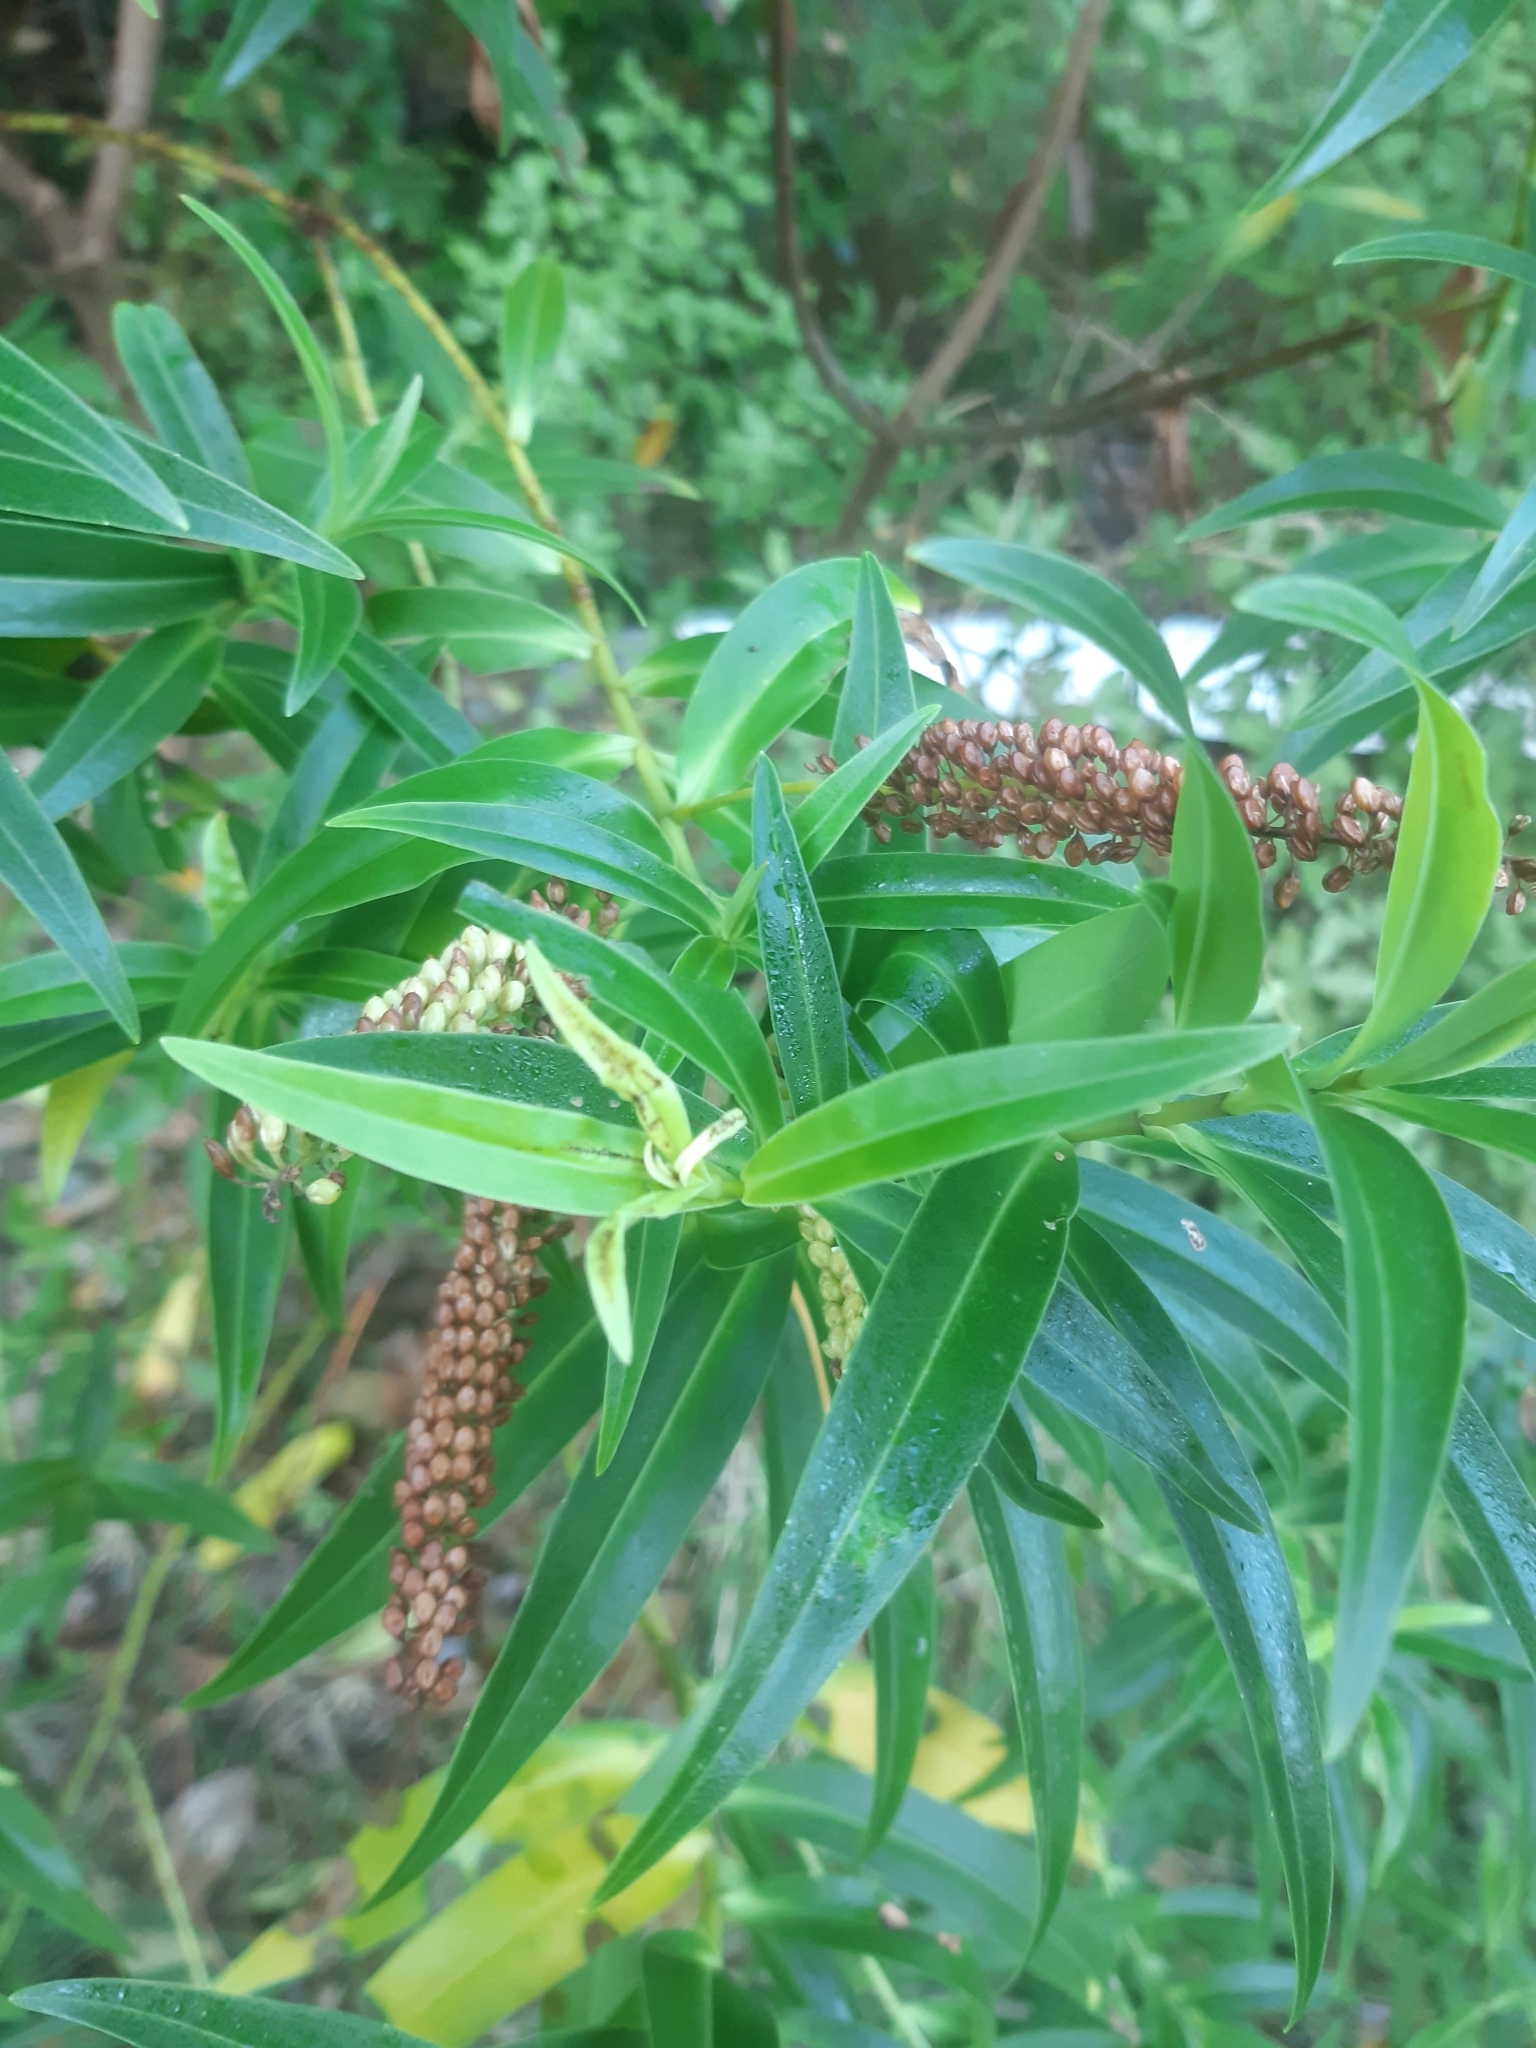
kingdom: Plantae
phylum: Tracheophyta
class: Magnoliopsida
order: Lamiales
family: Plantaginaceae
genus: Veronica
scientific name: Veronica salicifolia
